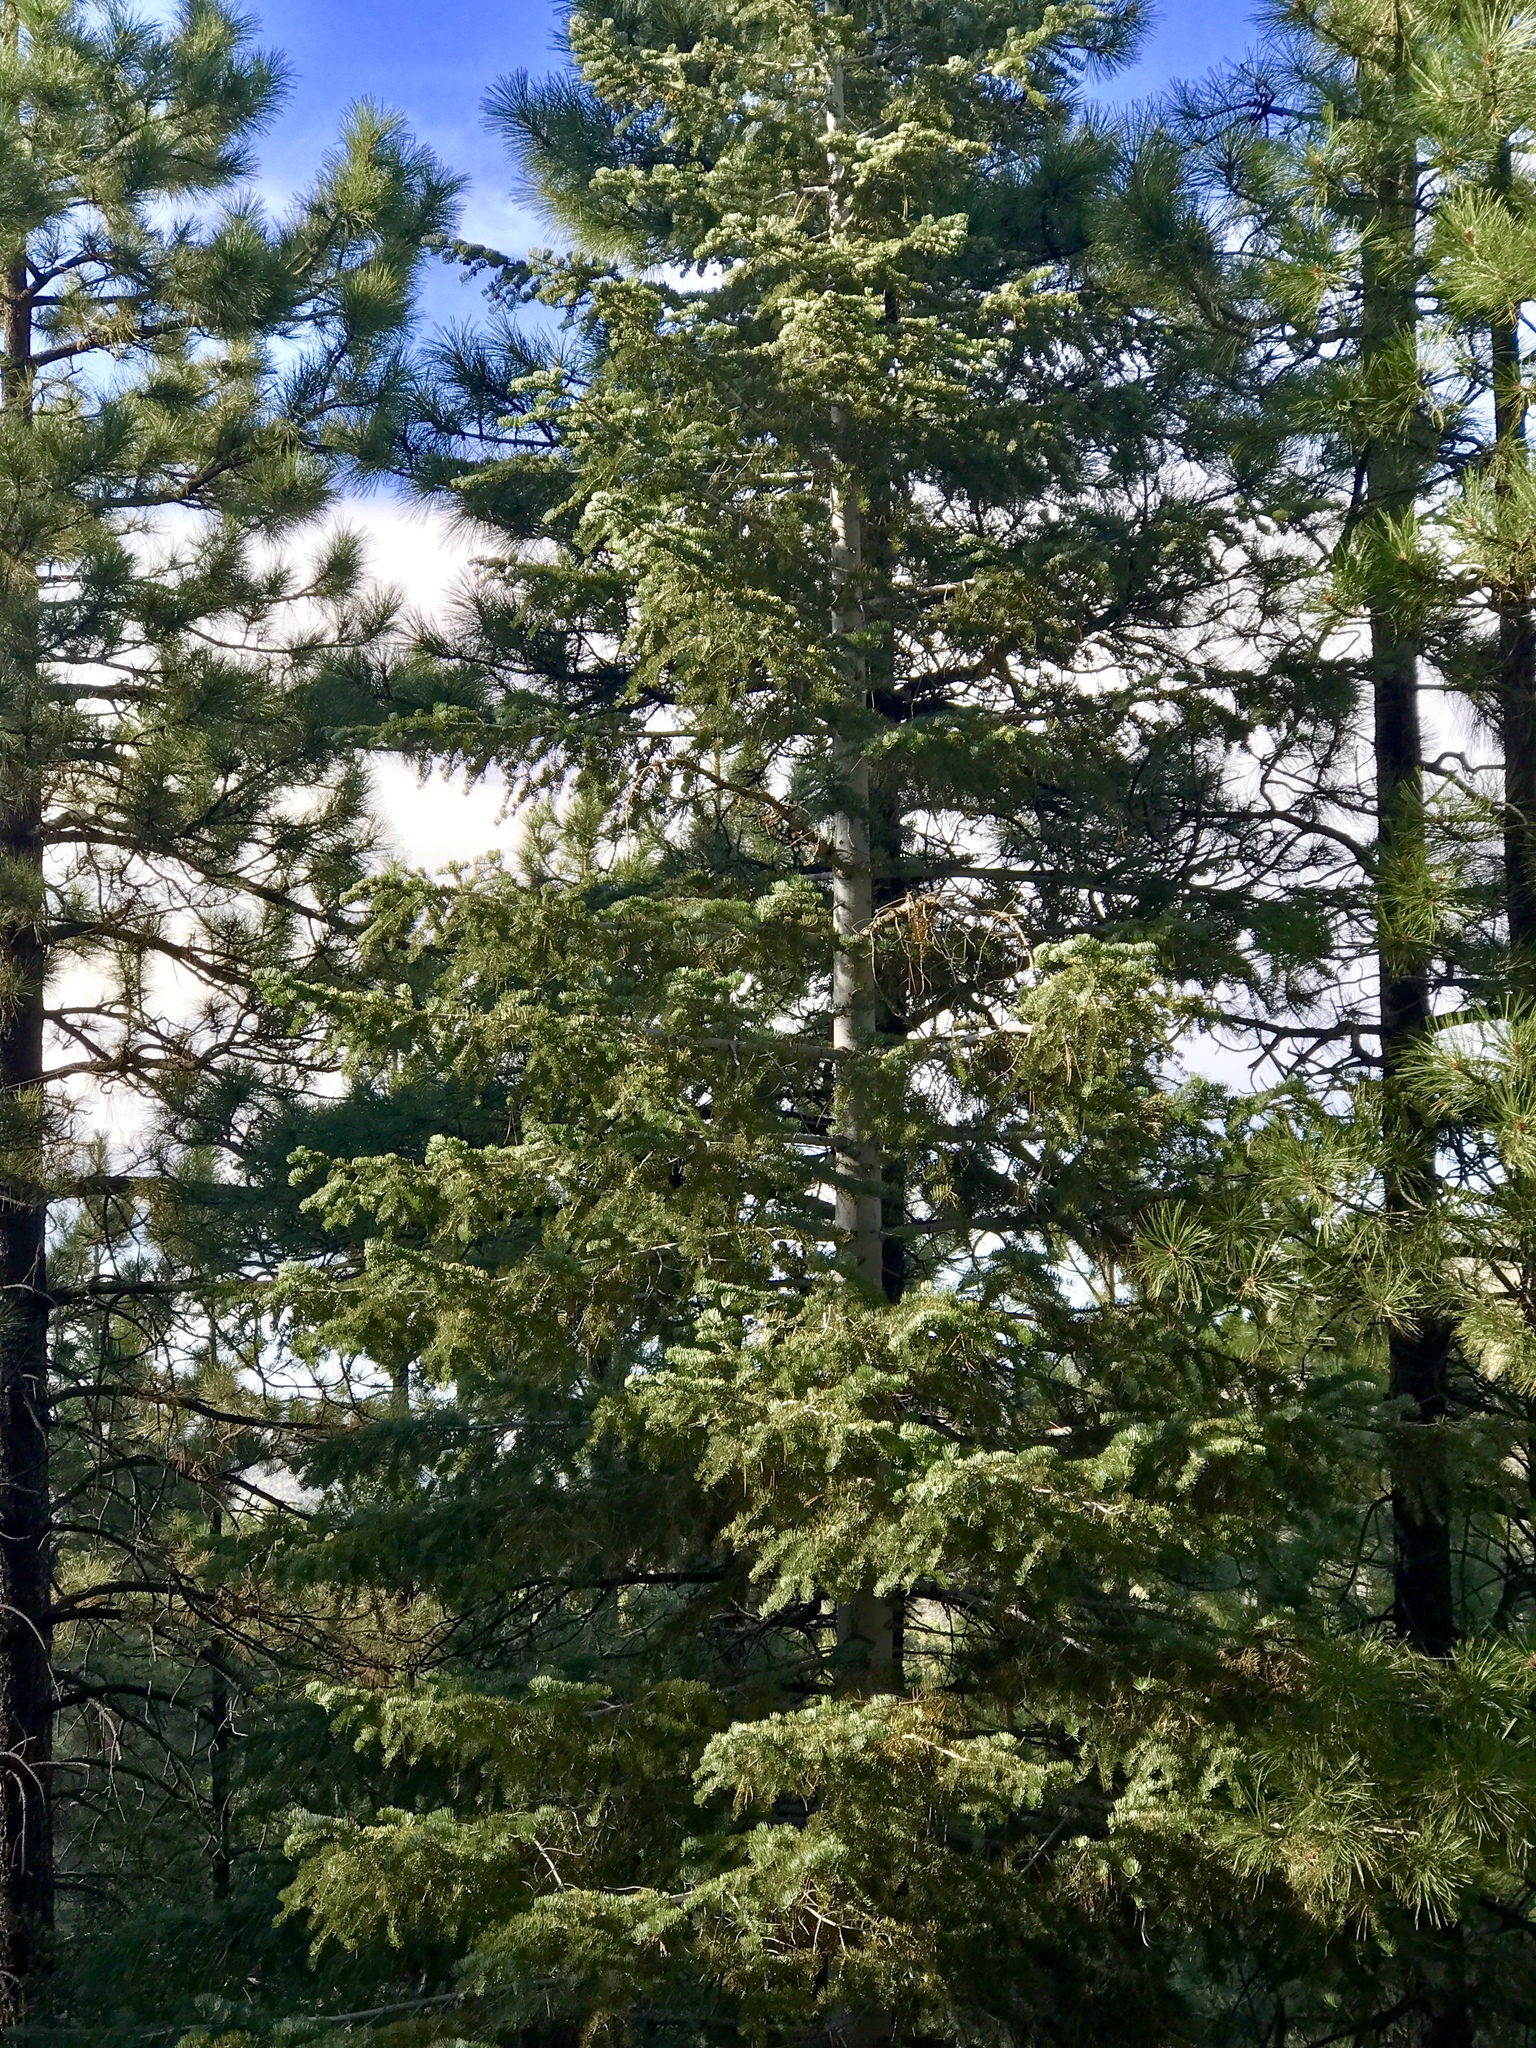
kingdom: Plantae
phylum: Tracheophyta
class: Pinopsida
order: Pinales
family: Pinaceae
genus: Abies
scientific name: Abies concolor
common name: Colorado fir
